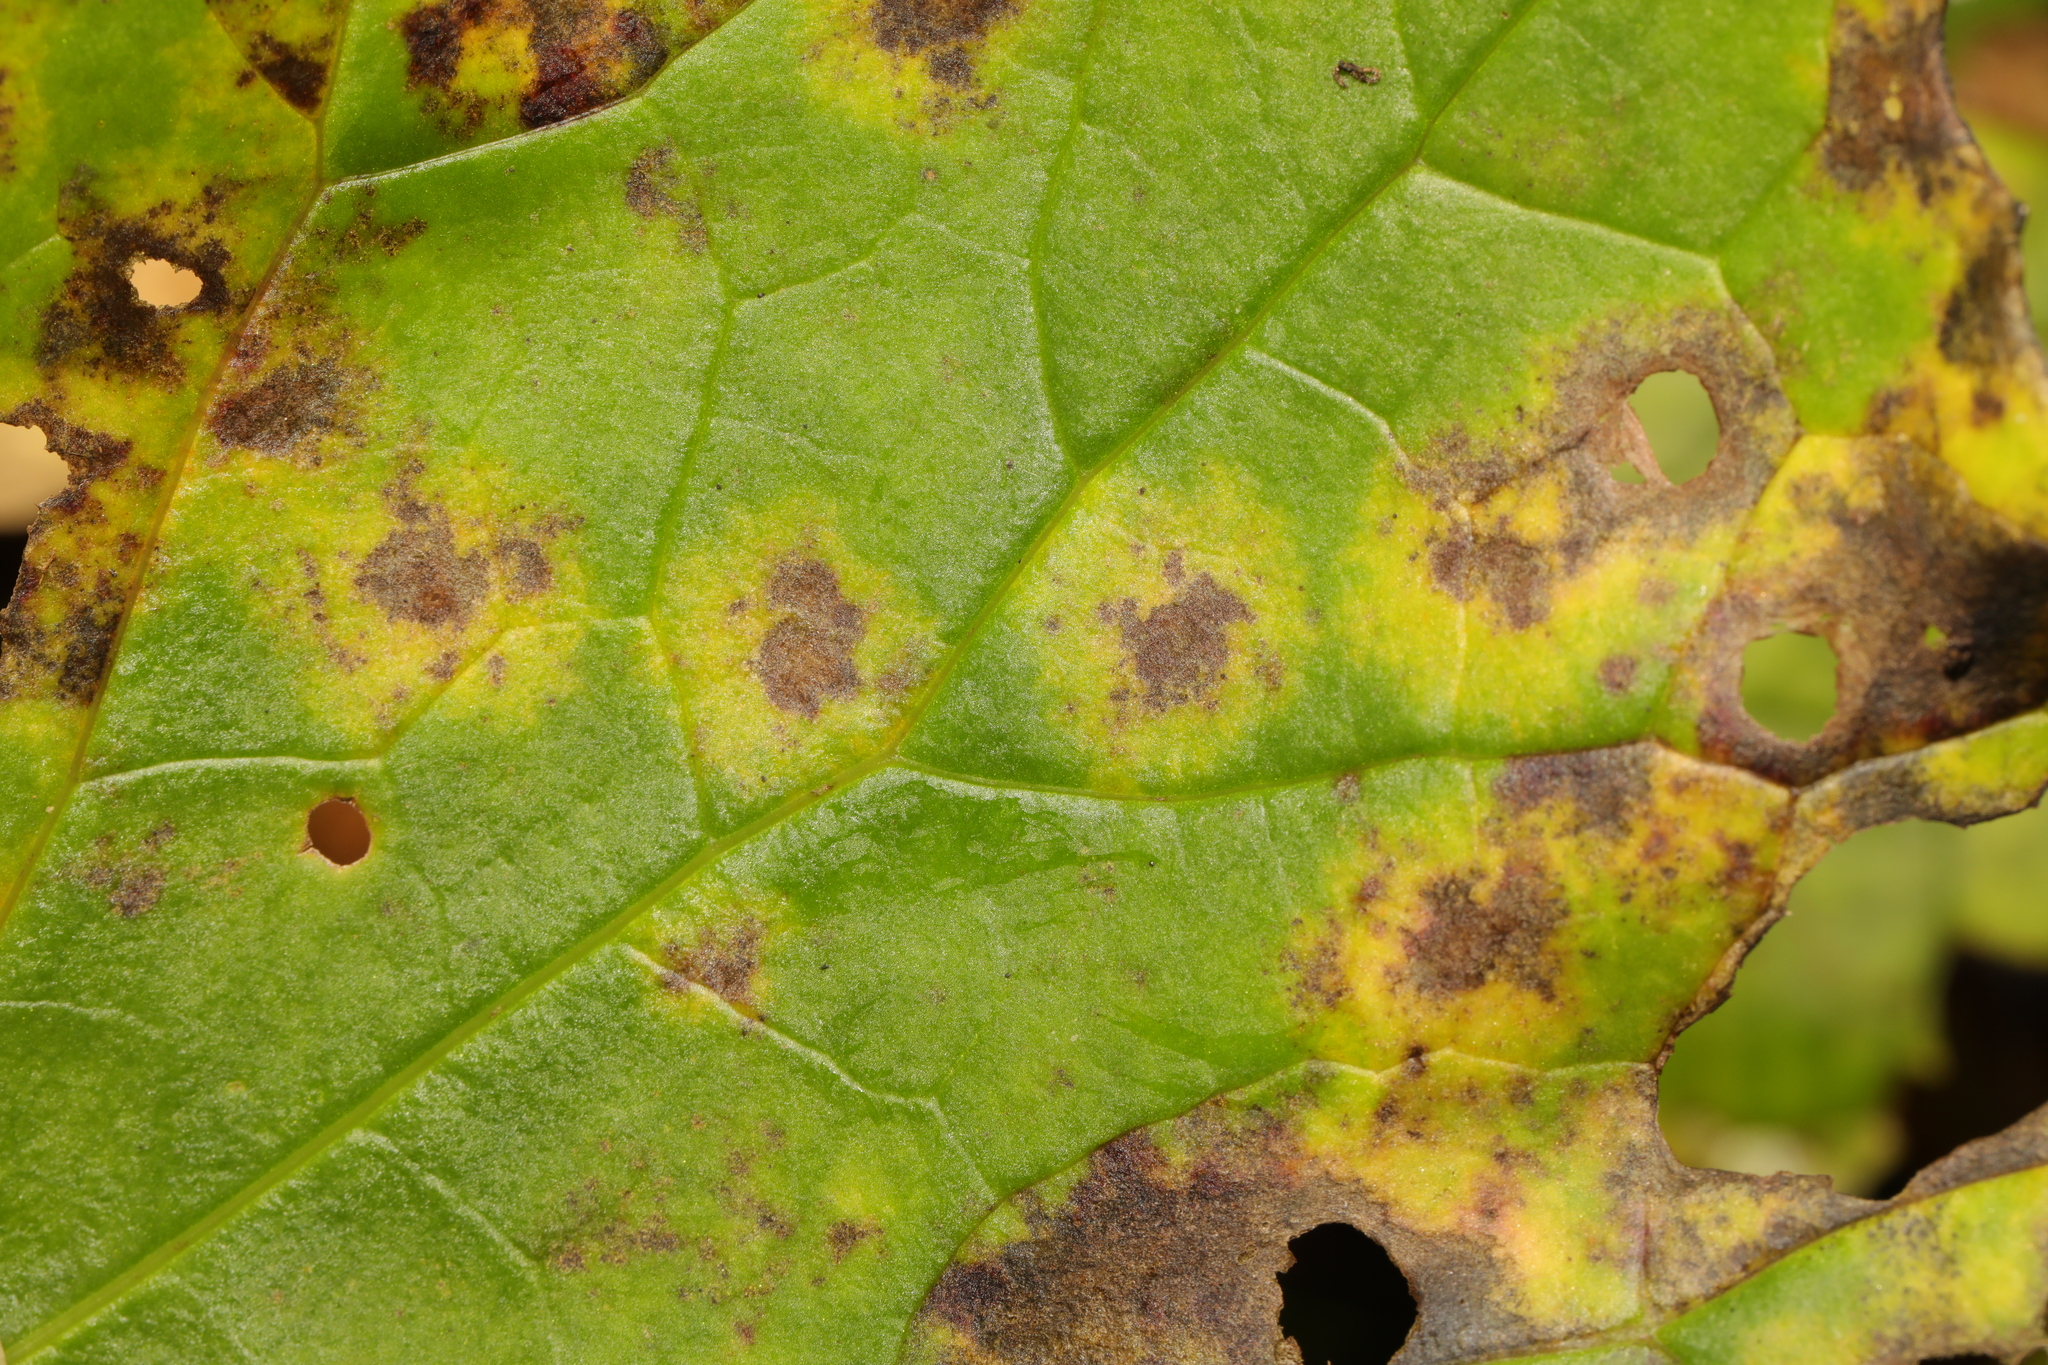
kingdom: Fungi
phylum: Basidiomycota
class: Pucciniomycetes
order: Pucciniales
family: Coleosporiaceae
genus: Coleosporium
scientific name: Coleosporium tussilaginis
